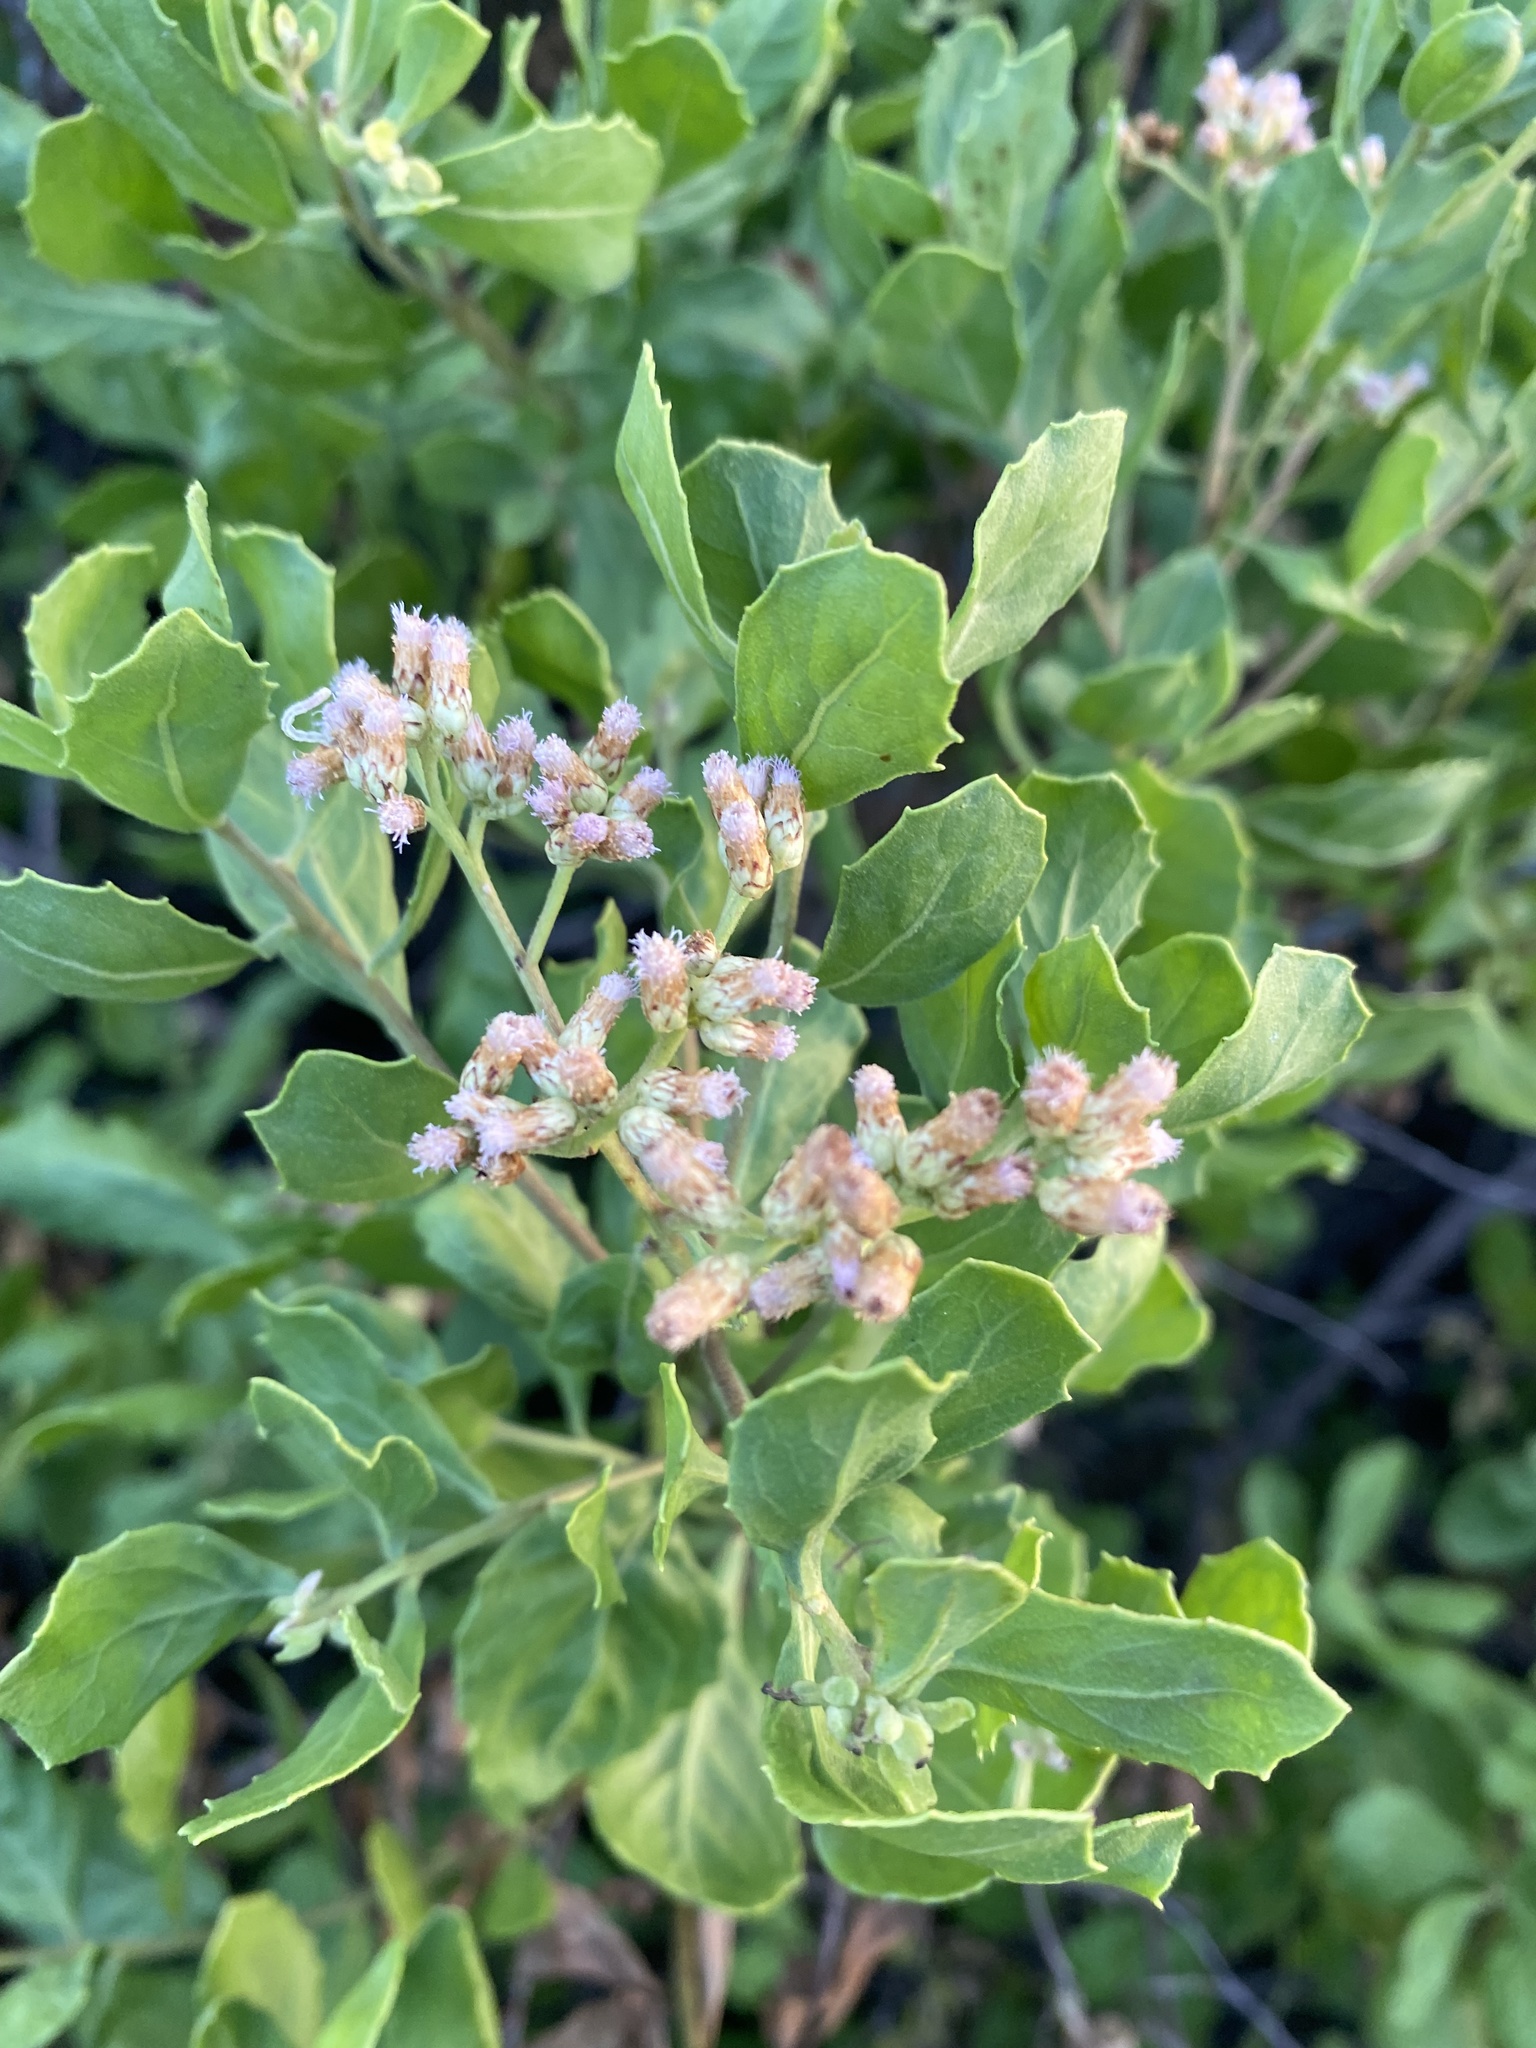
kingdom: Plantae
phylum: Tracheophyta
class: Magnoliopsida
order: Asterales
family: Asteraceae
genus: Pluchea
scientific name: Pluchea indica
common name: Indian fleabane
